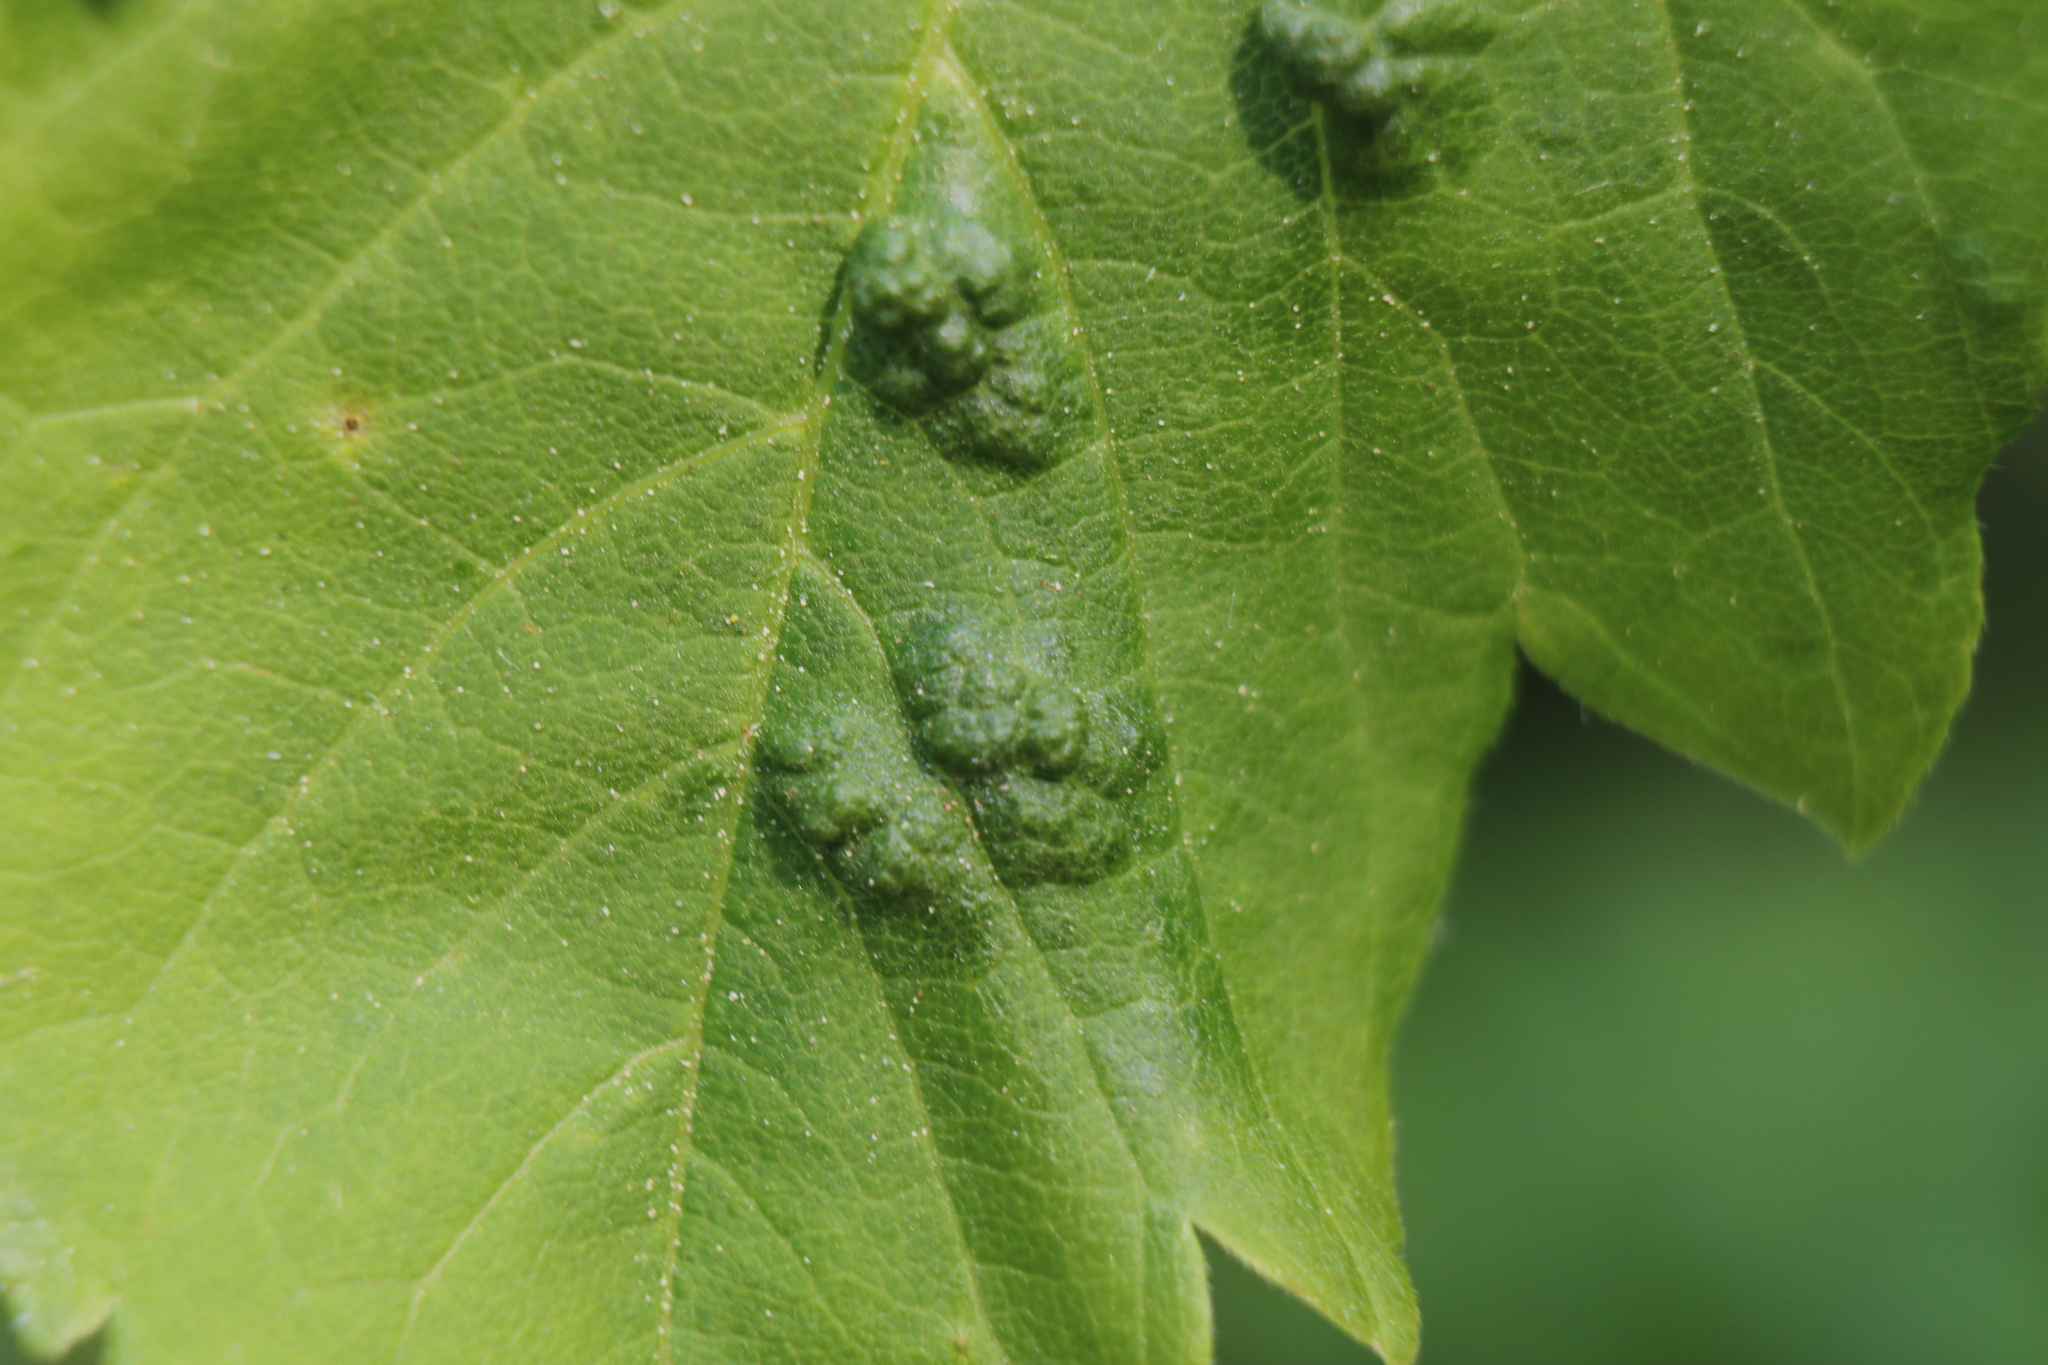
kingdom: Animalia
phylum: Arthropoda
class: Arachnida
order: Trombidiformes
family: Eriophyidae
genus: Aceria
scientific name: Aceria
